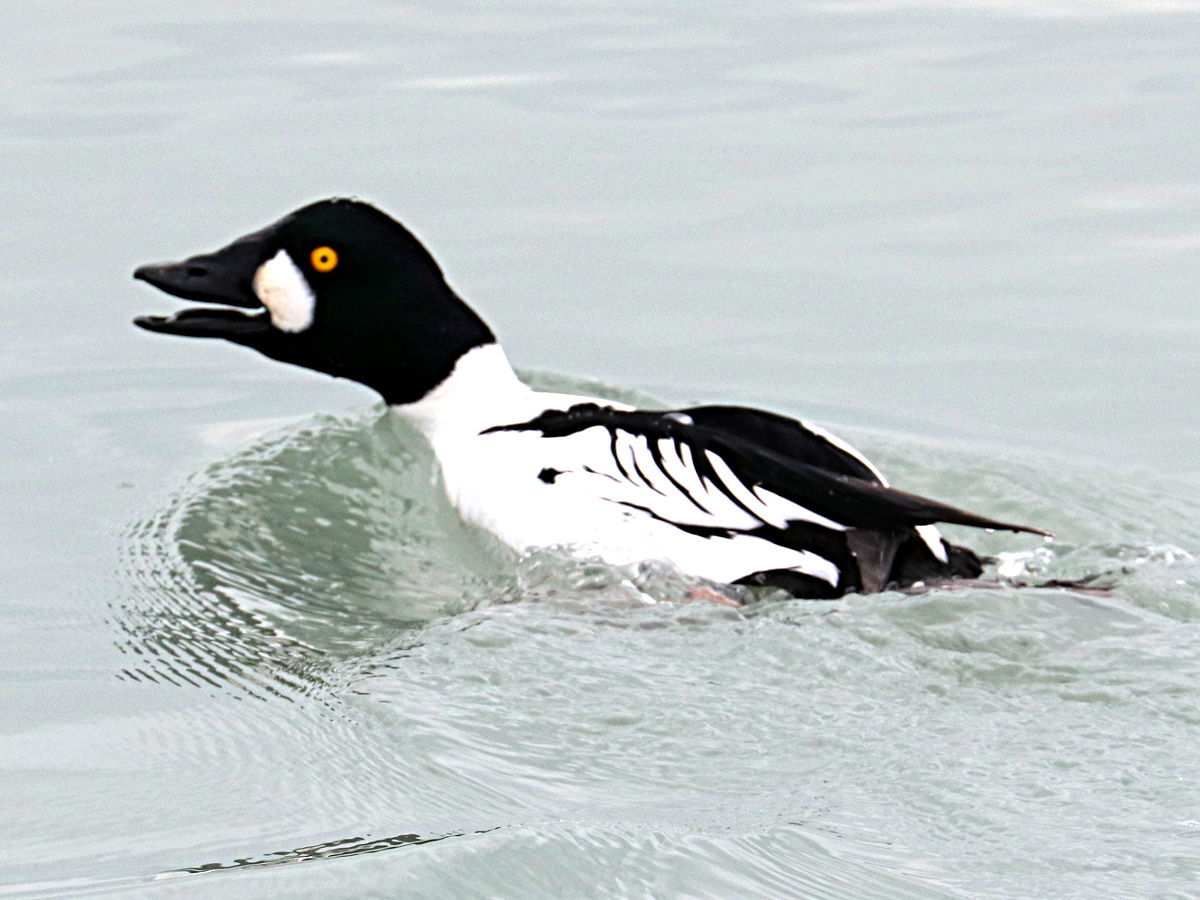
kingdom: Animalia
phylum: Chordata
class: Aves
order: Anseriformes
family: Anatidae
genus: Bucephala
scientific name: Bucephala clangula
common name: Common goldeneye
